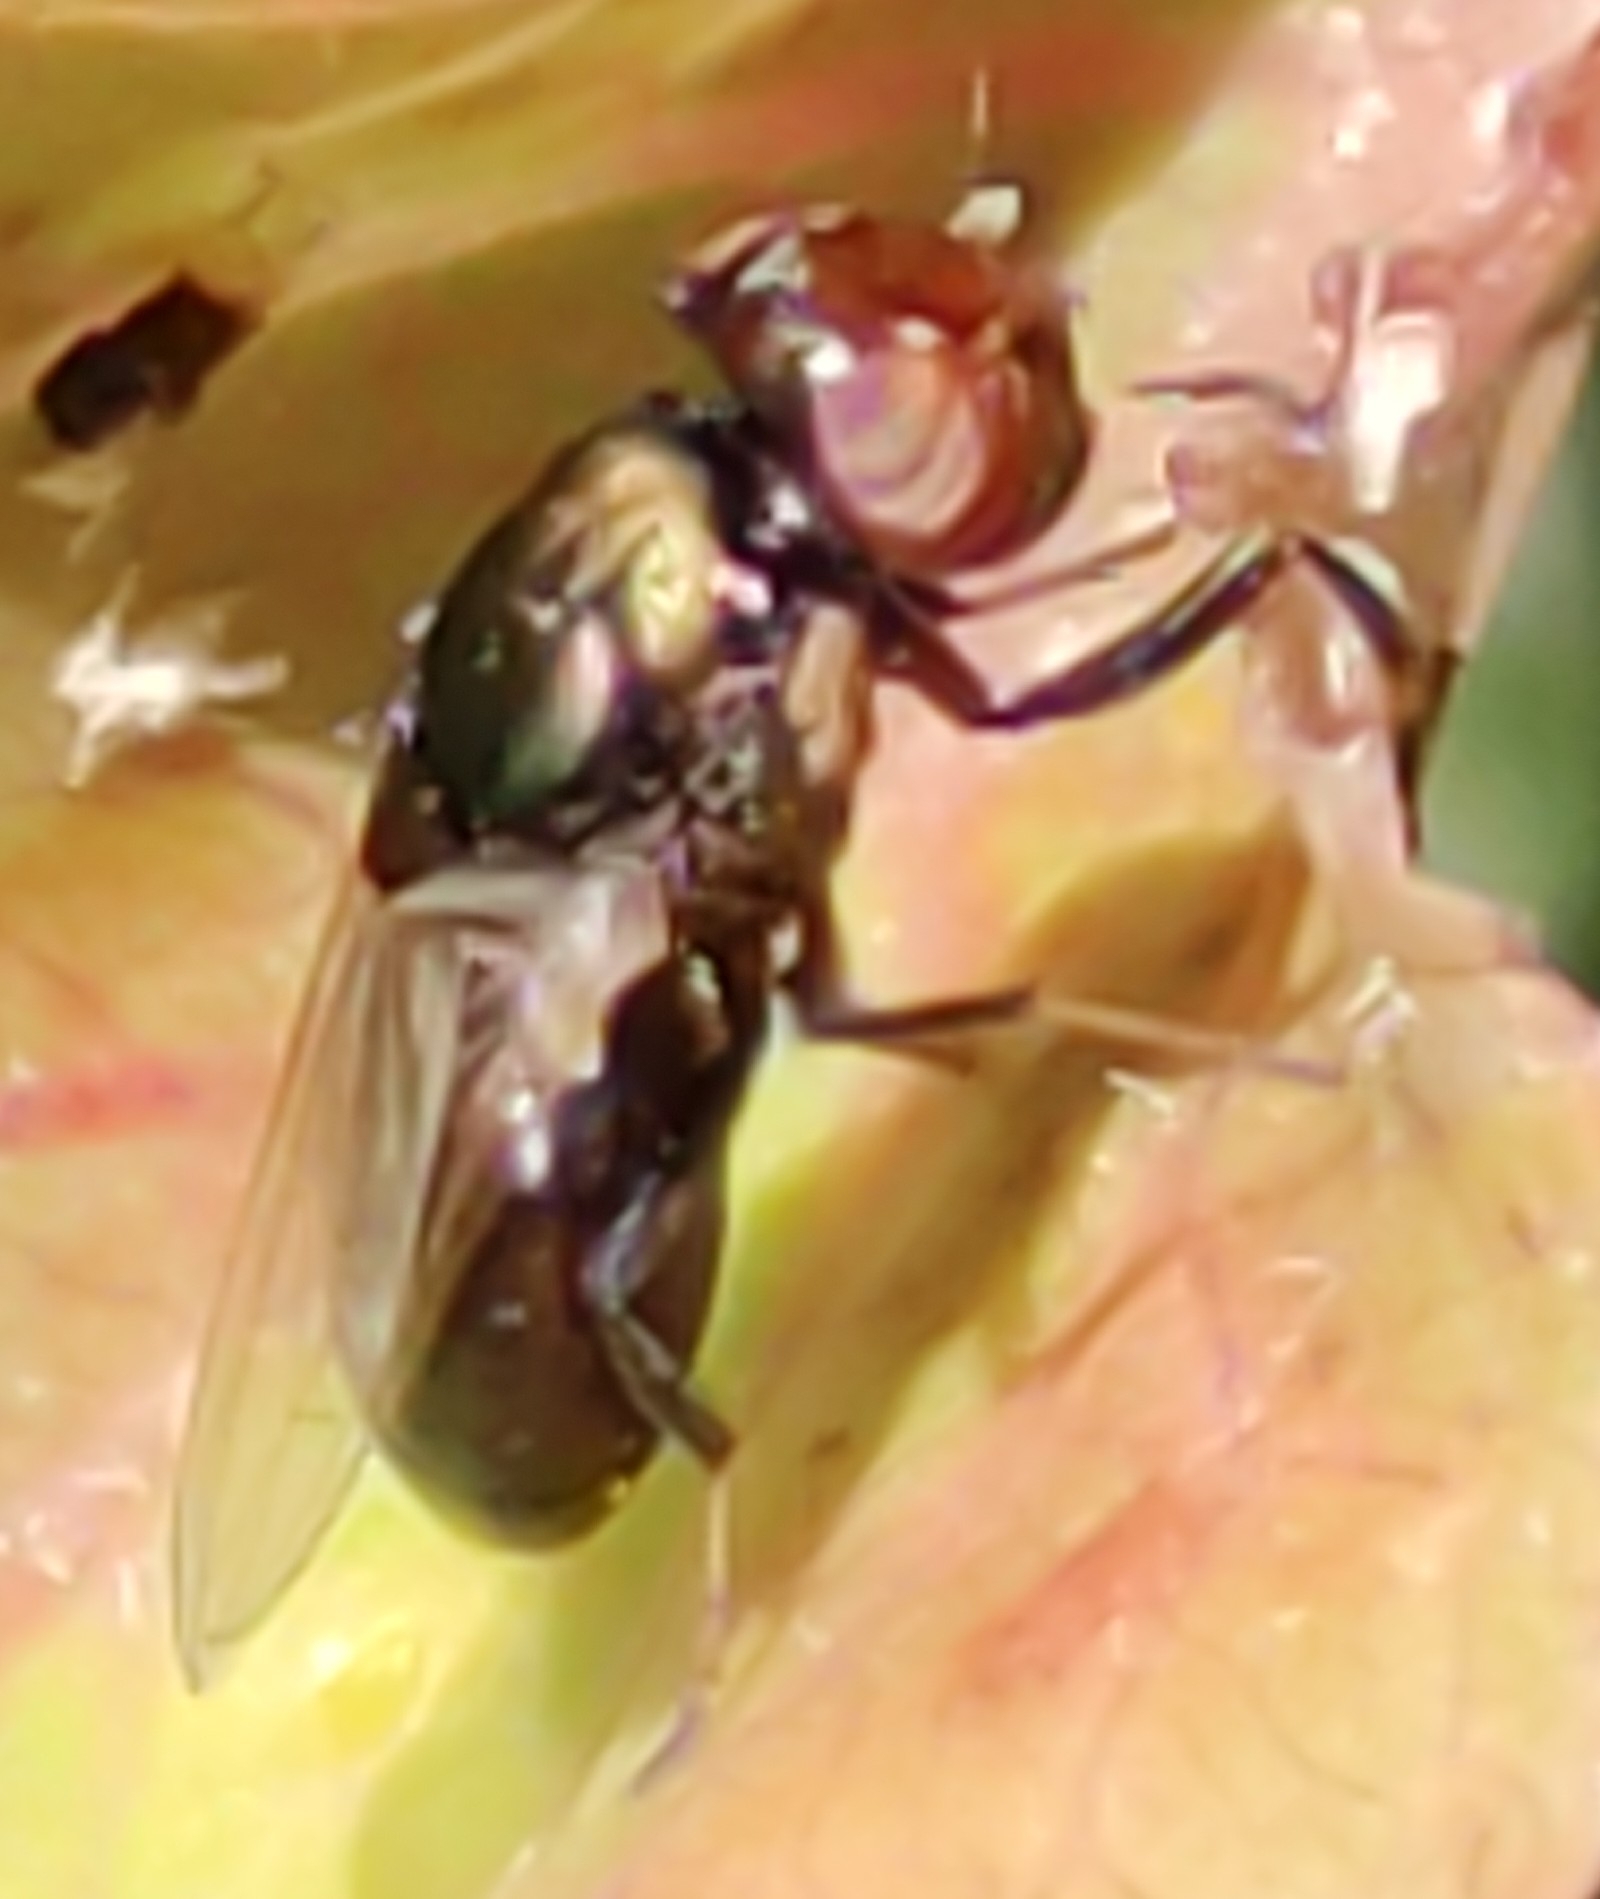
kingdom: Animalia
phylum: Arthropoda
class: Insecta
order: Diptera
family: Ulidiidae
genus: Physiphora
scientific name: Physiphora alceae
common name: Picture-winged fly
